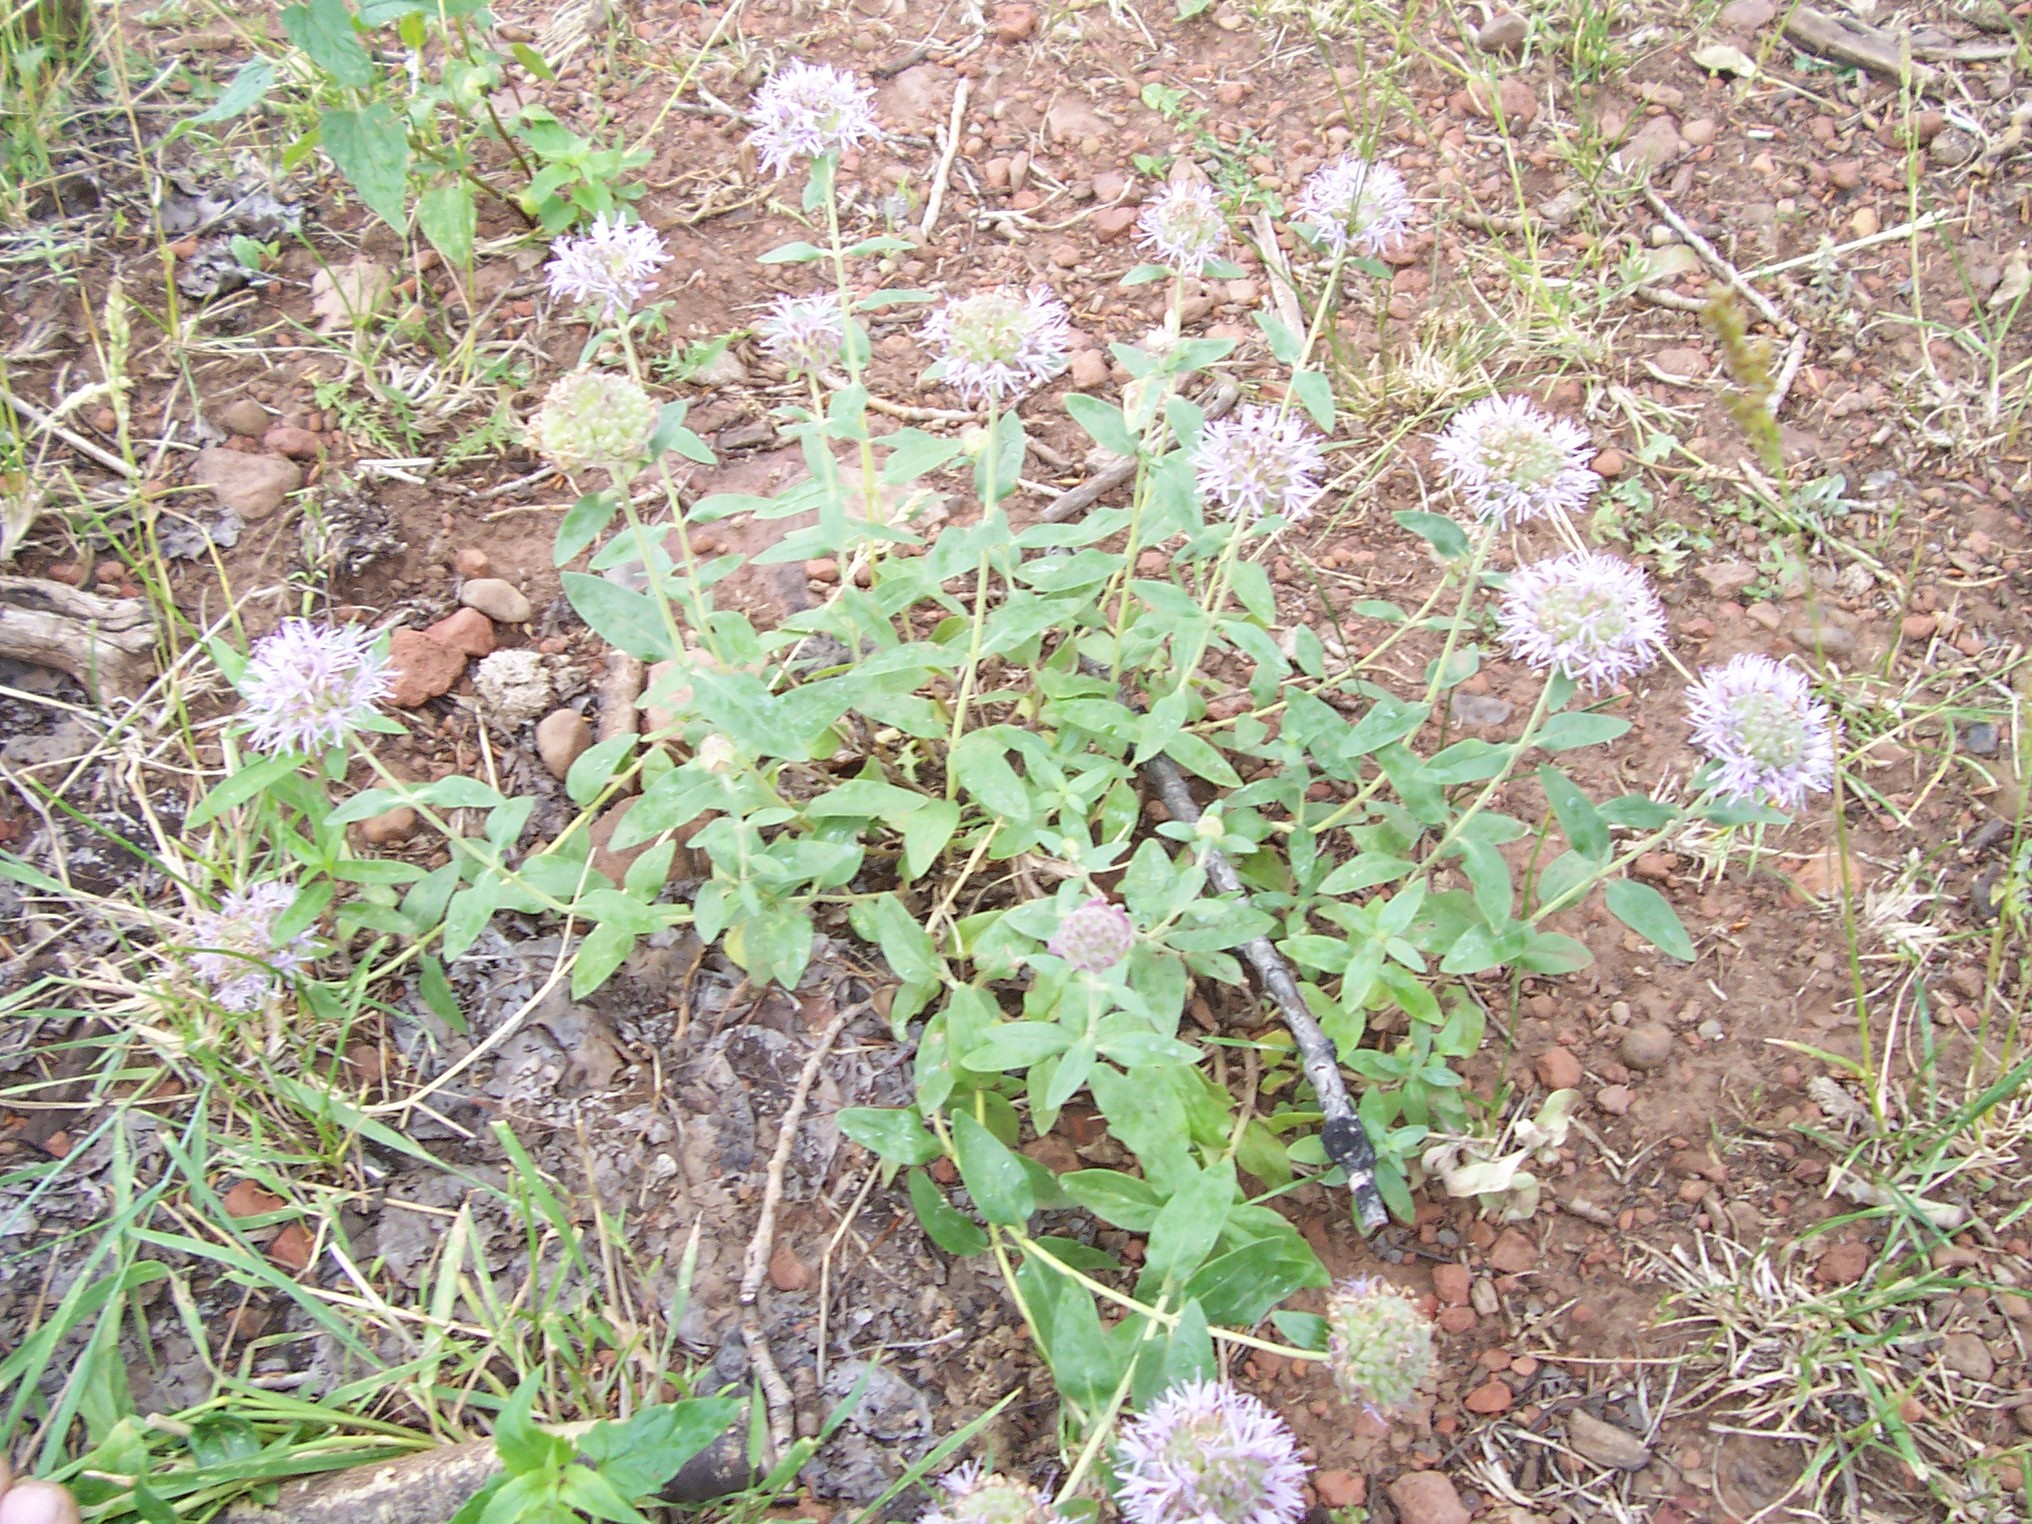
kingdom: Plantae
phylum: Tracheophyta
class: Magnoliopsida
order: Lamiales
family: Lamiaceae
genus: Monardella
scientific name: Monardella odoratissima
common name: Pacific monardella
